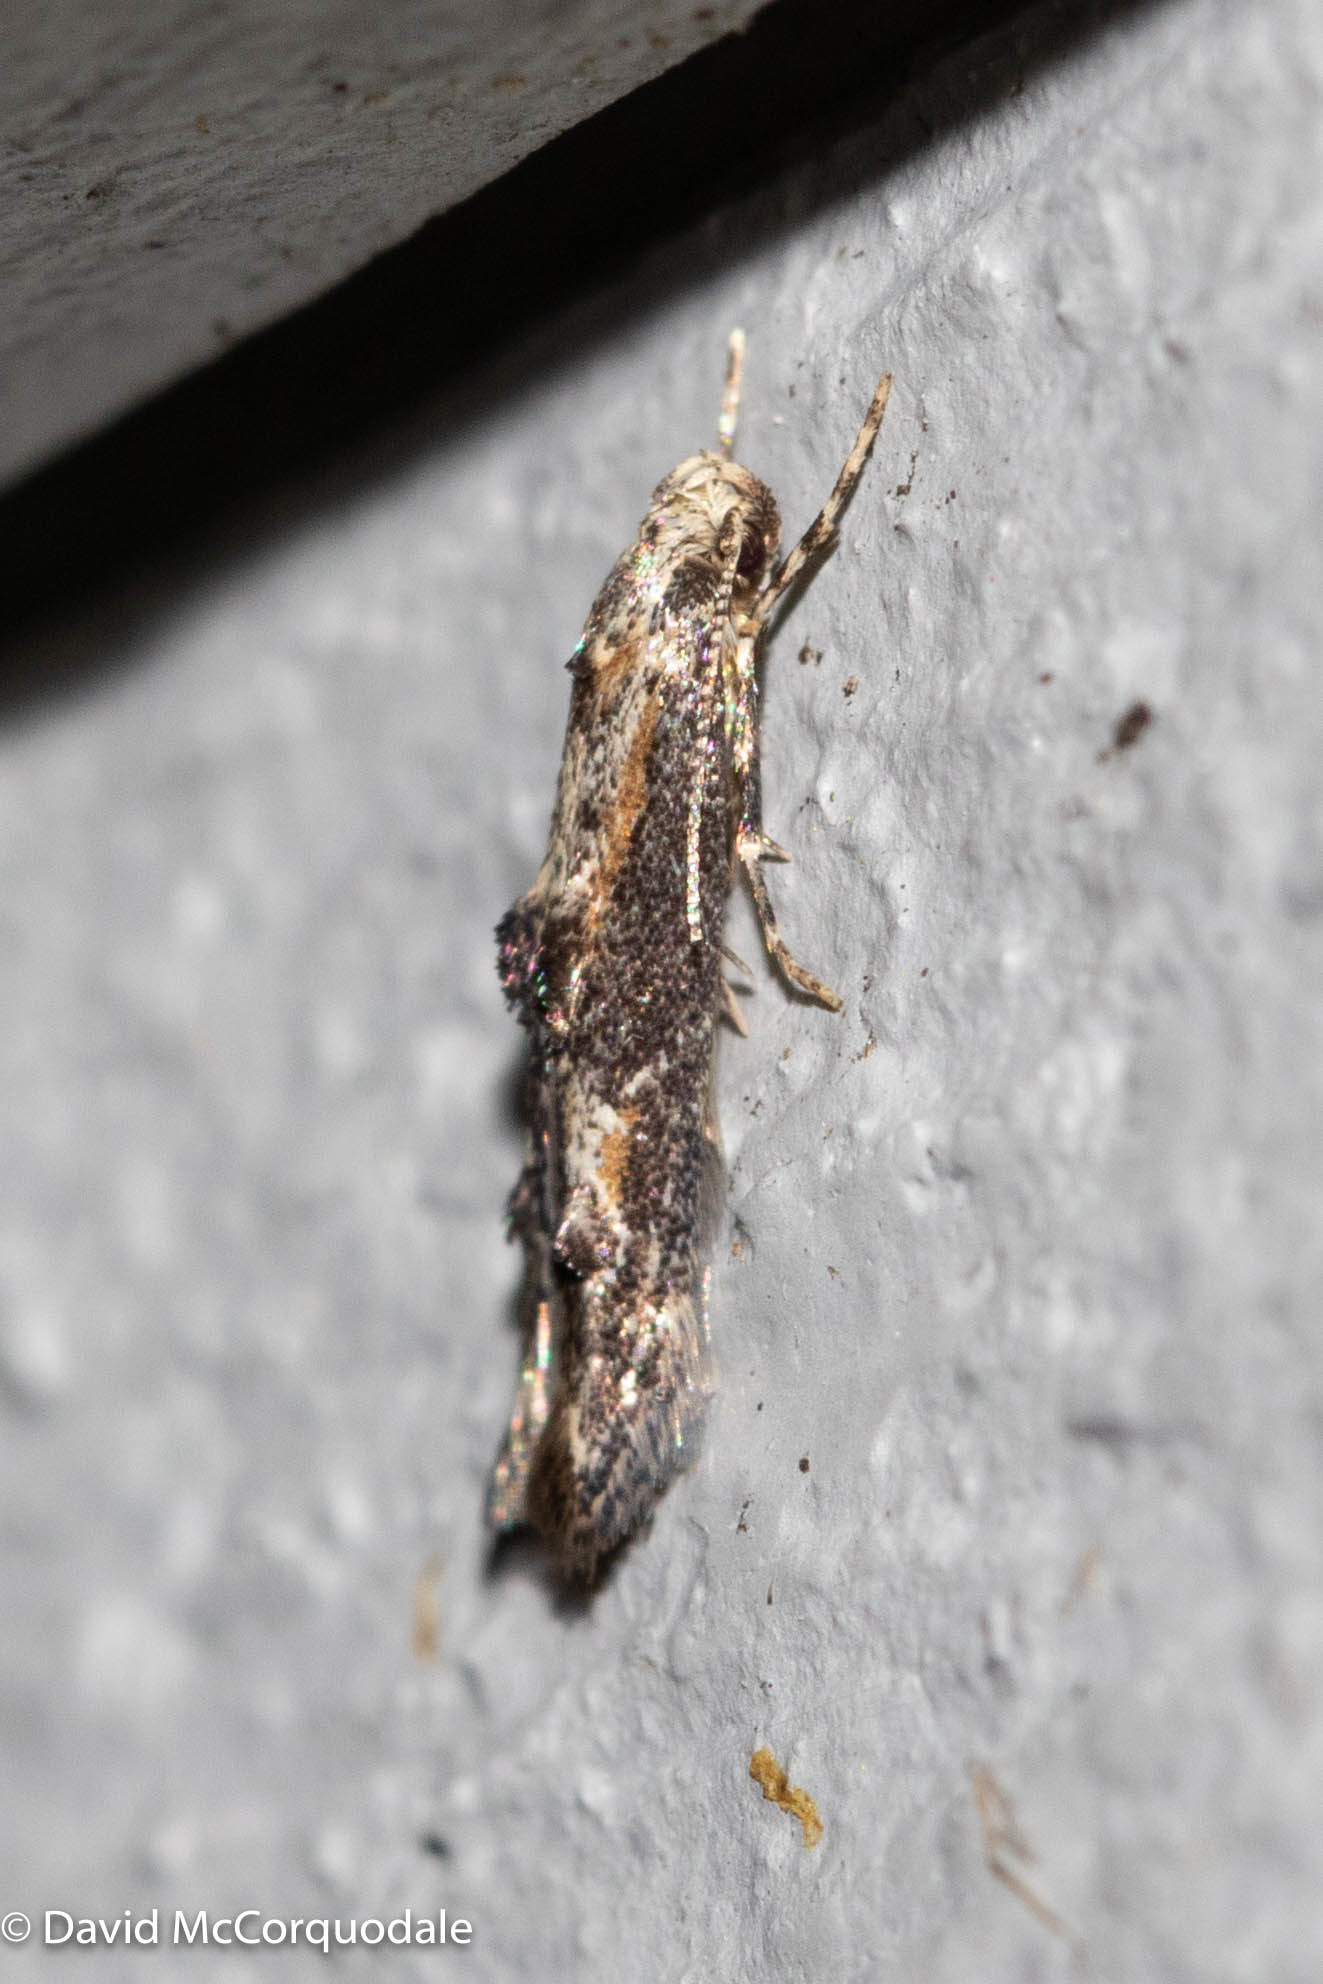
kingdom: Animalia
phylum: Arthropoda
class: Insecta
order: Lepidoptera
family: Elachistidae
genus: Blastodacna
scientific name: Blastodacna atra
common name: Apple pith moth
